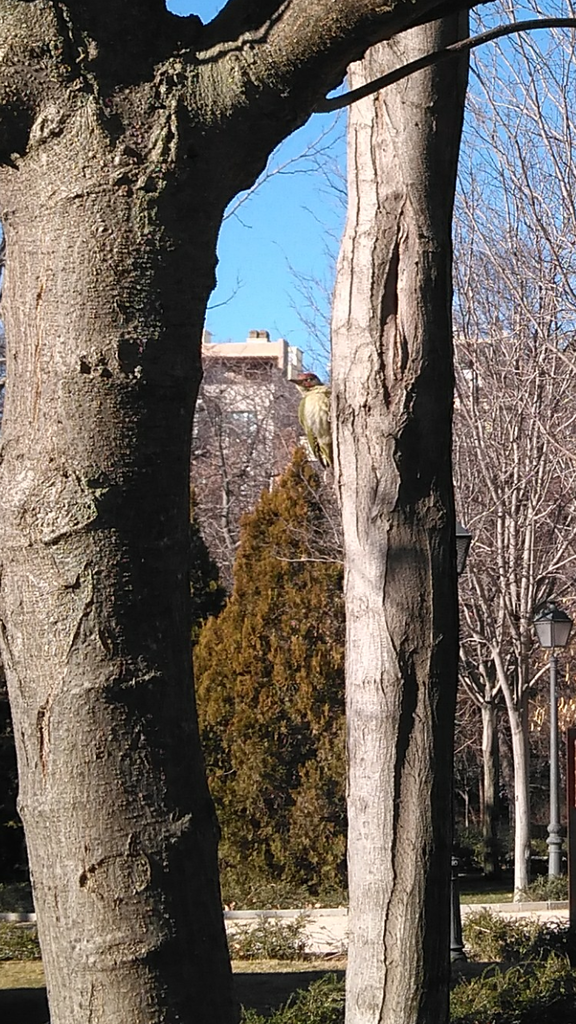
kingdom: Animalia
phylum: Chordata
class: Aves
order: Piciformes
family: Picidae
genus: Picus
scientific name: Picus sharpei
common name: Iberian green woodpecker
